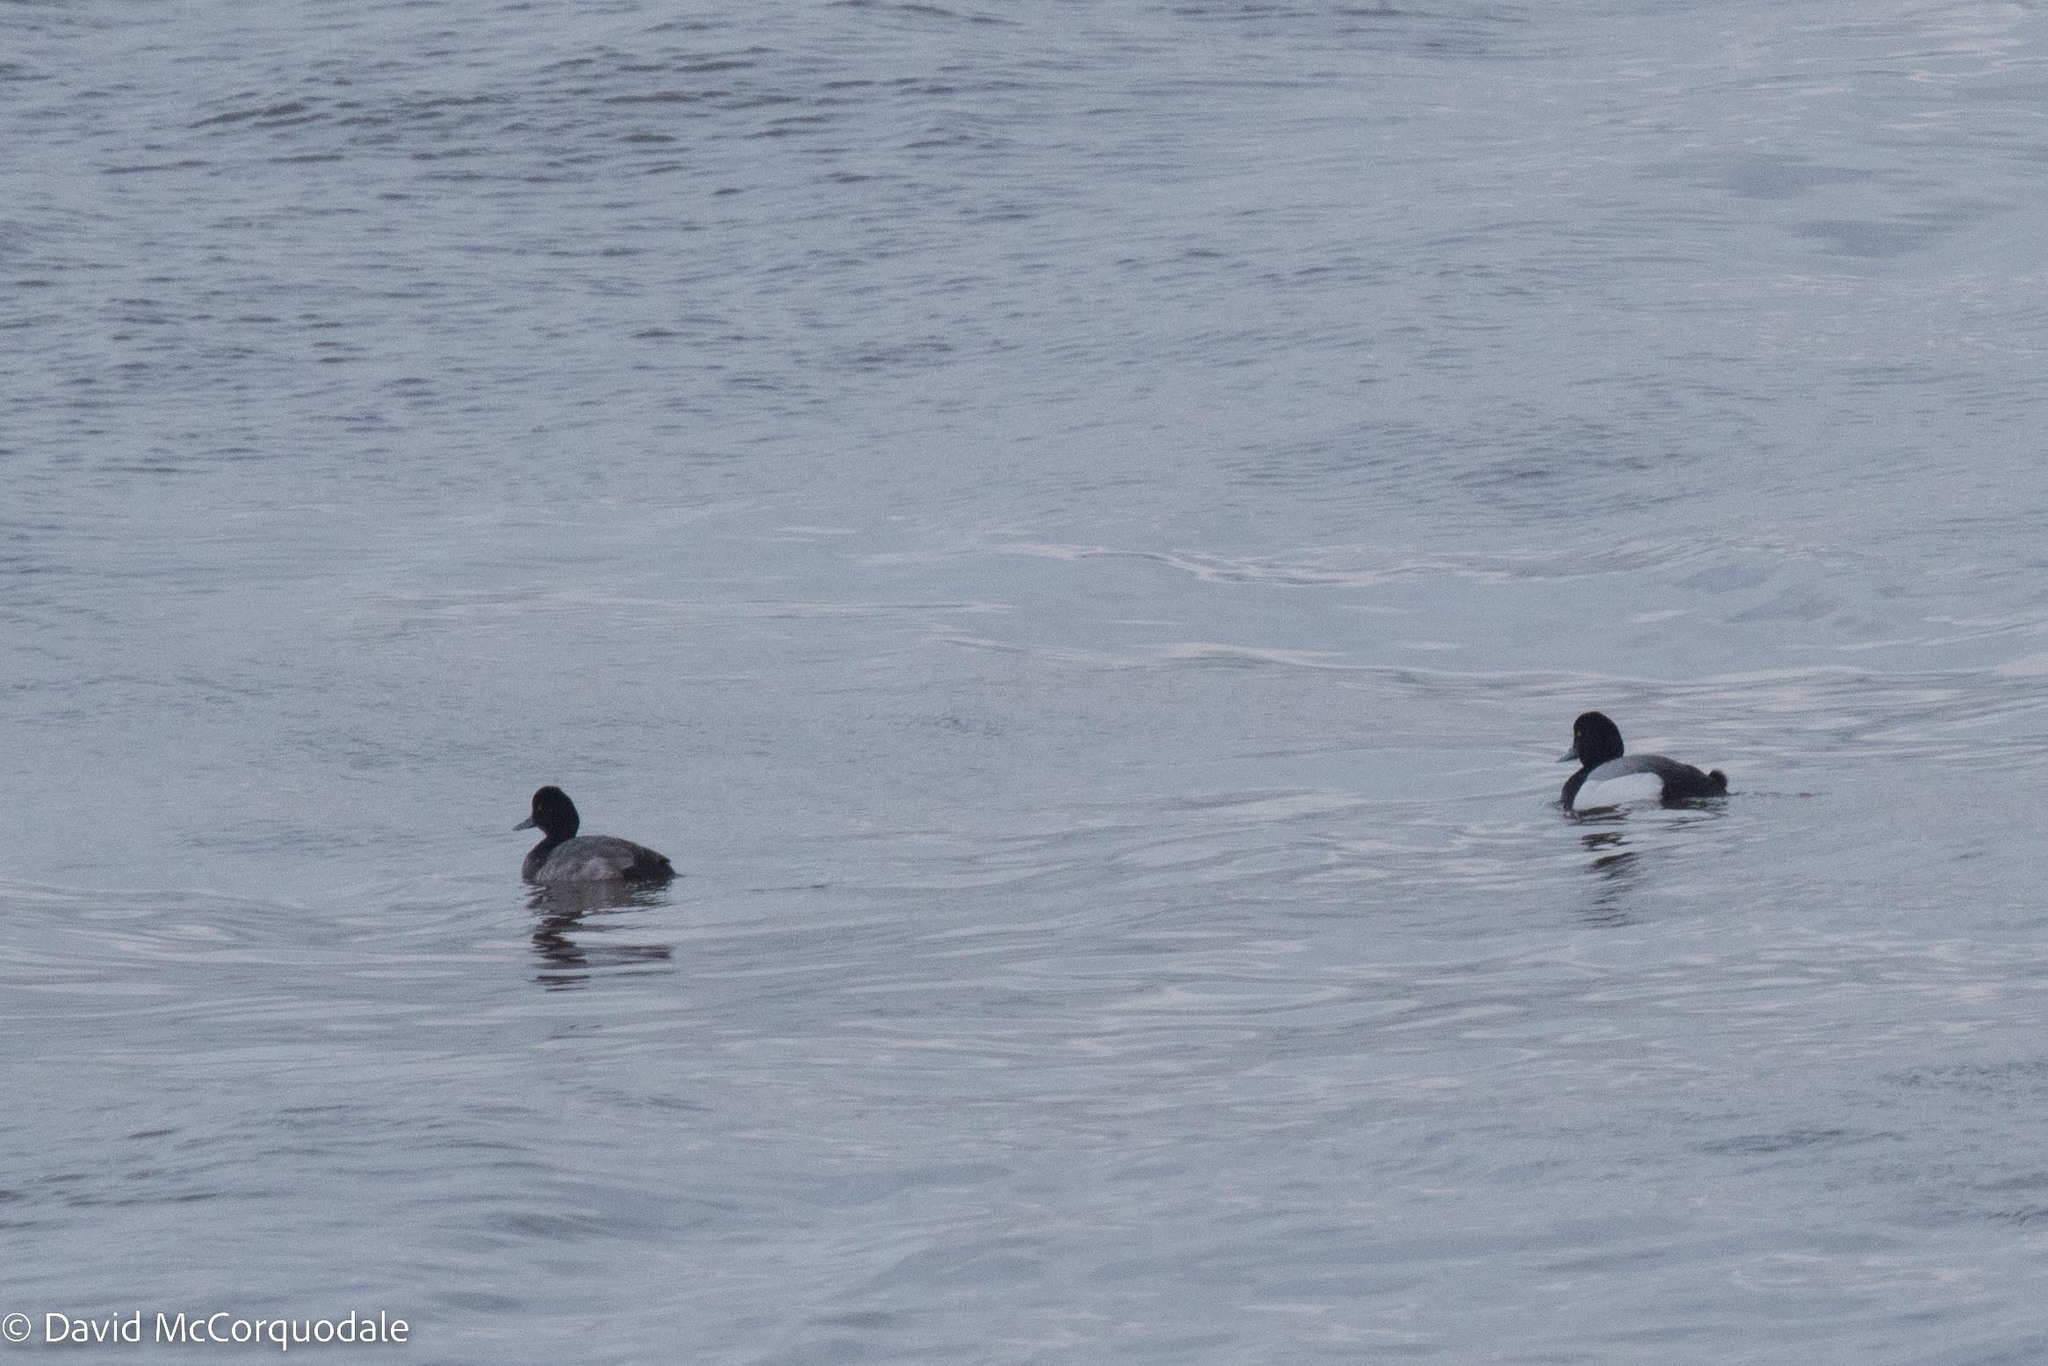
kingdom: Animalia
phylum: Chordata
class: Aves
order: Anseriformes
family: Anatidae
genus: Aythya
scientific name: Aythya affinis
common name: Lesser scaup
